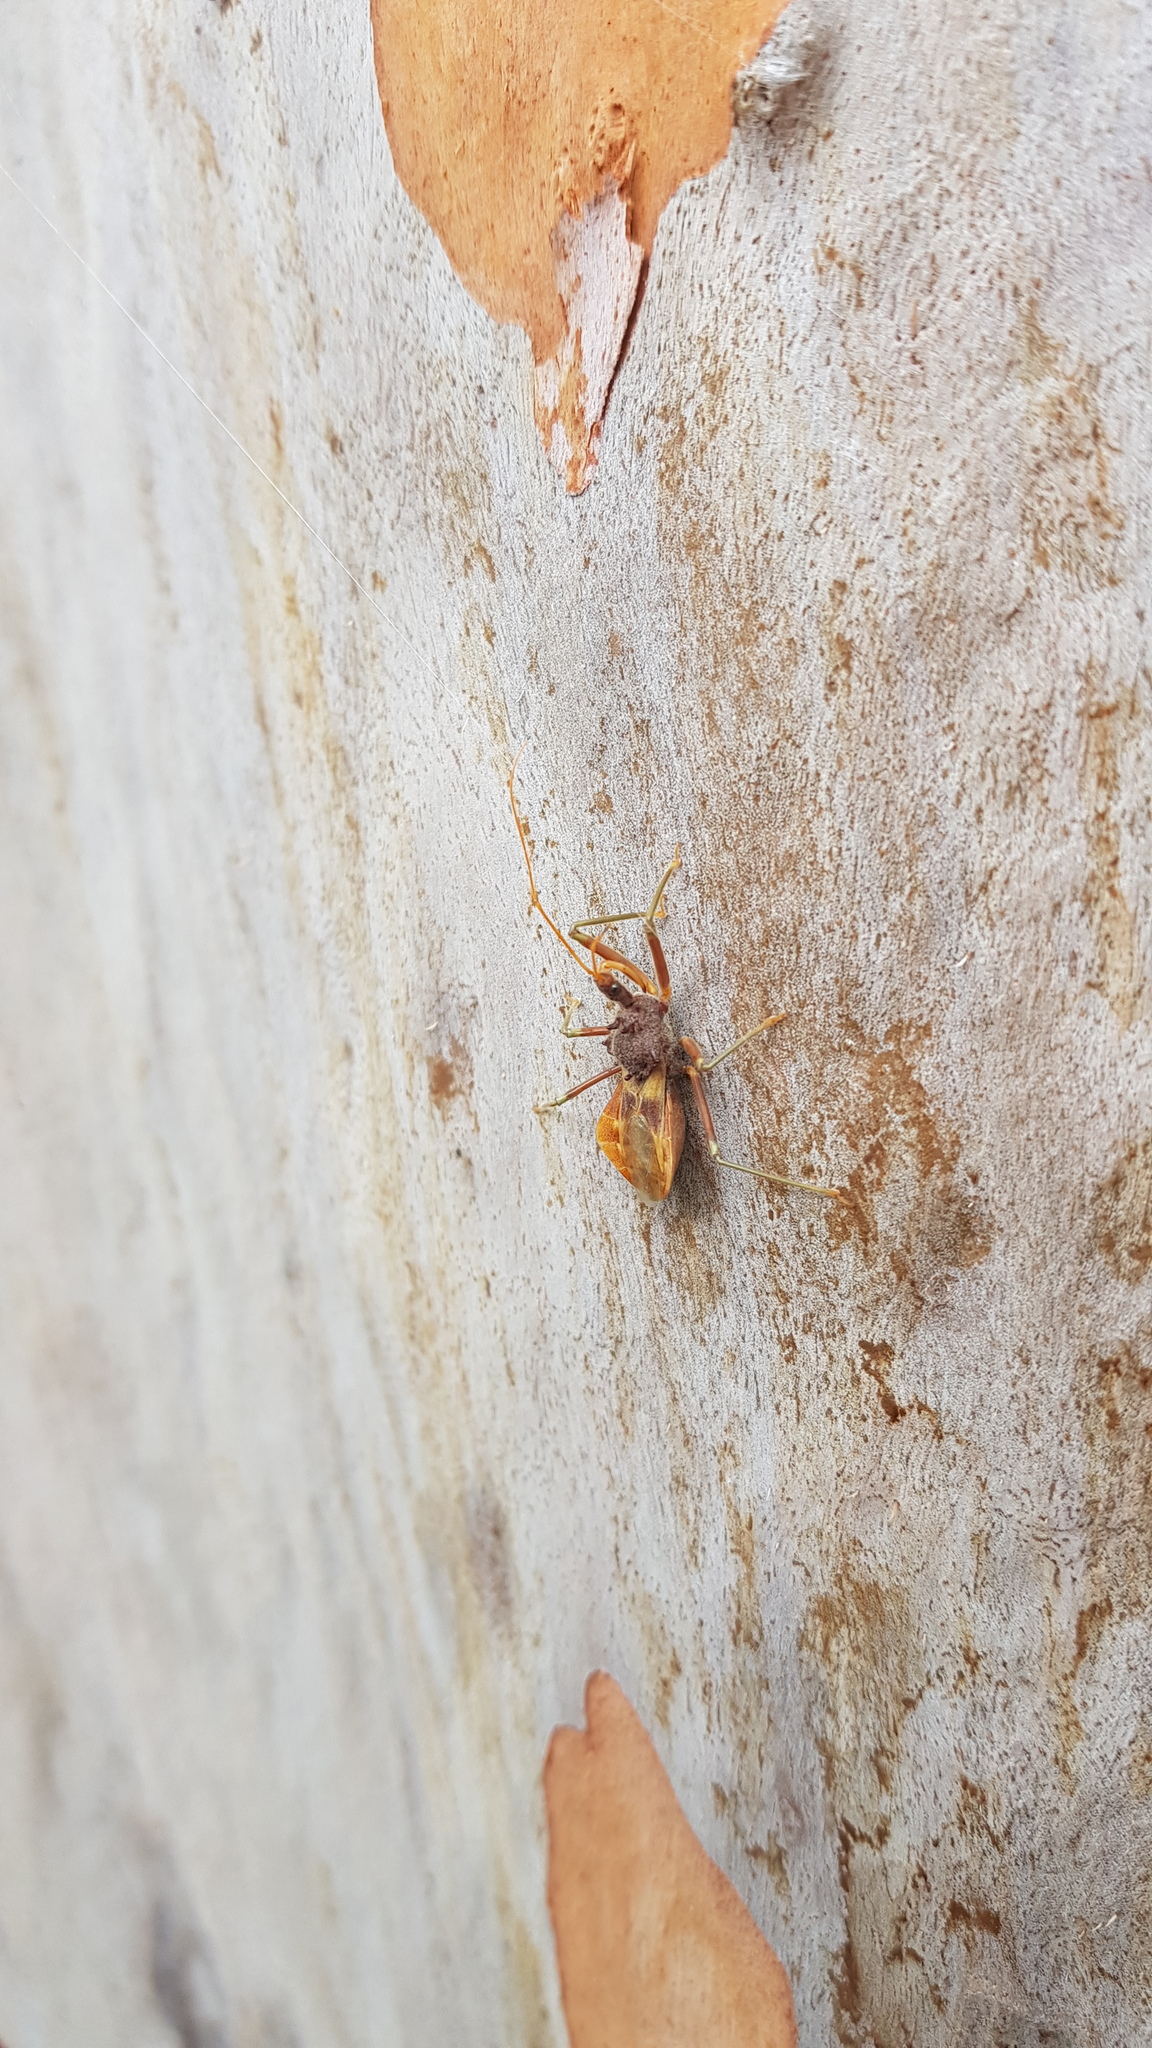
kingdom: Animalia
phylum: Arthropoda
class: Insecta
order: Hemiptera
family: Reduviidae
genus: Pristhesancus
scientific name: Pristhesancus plagipennis
